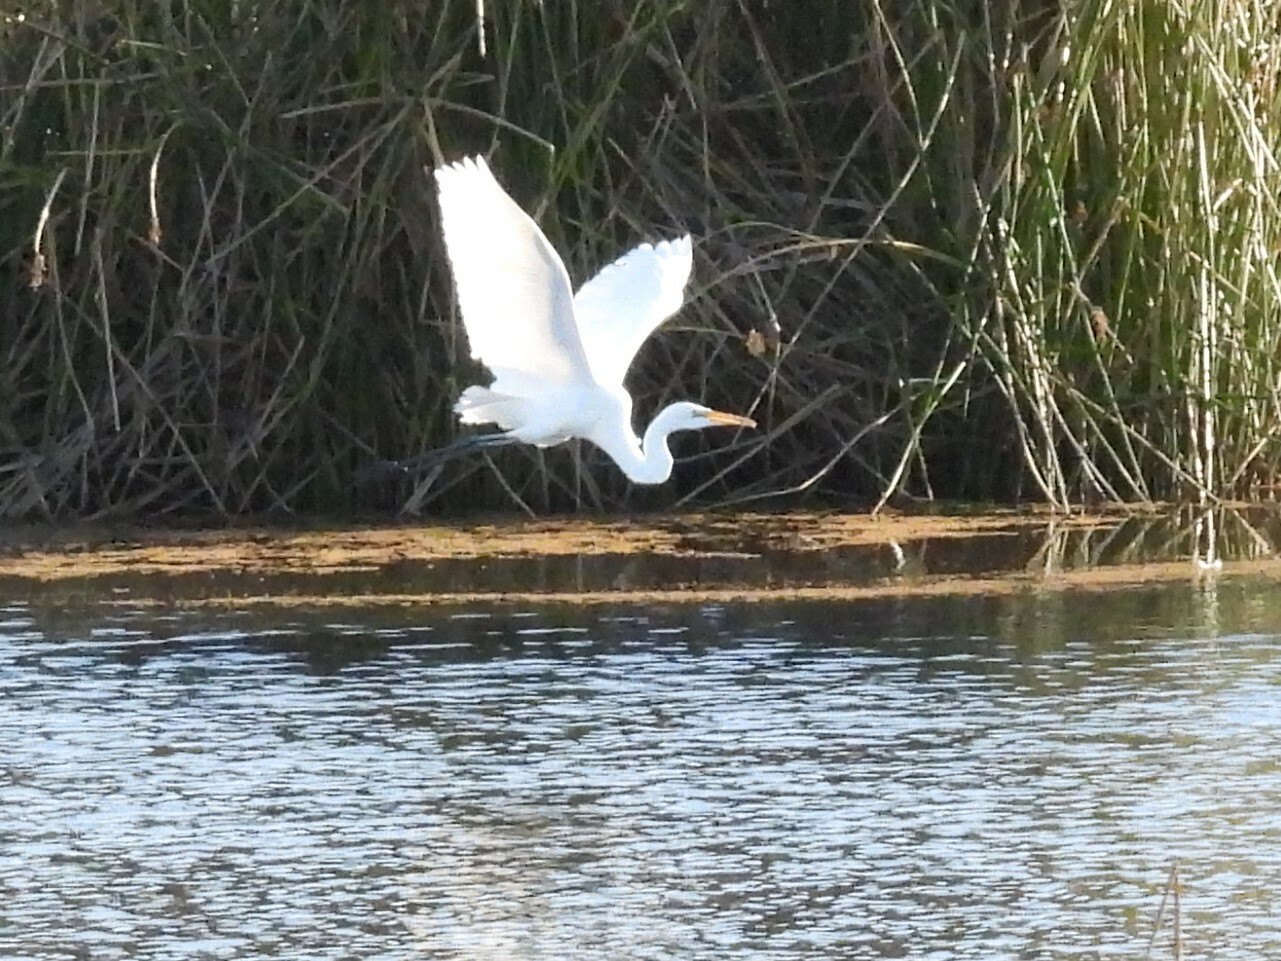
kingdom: Animalia
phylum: Chordata
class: Aves
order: Pelecaniformes
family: Ardeidae
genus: Ardea
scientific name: Ardea alba
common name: Great egret
